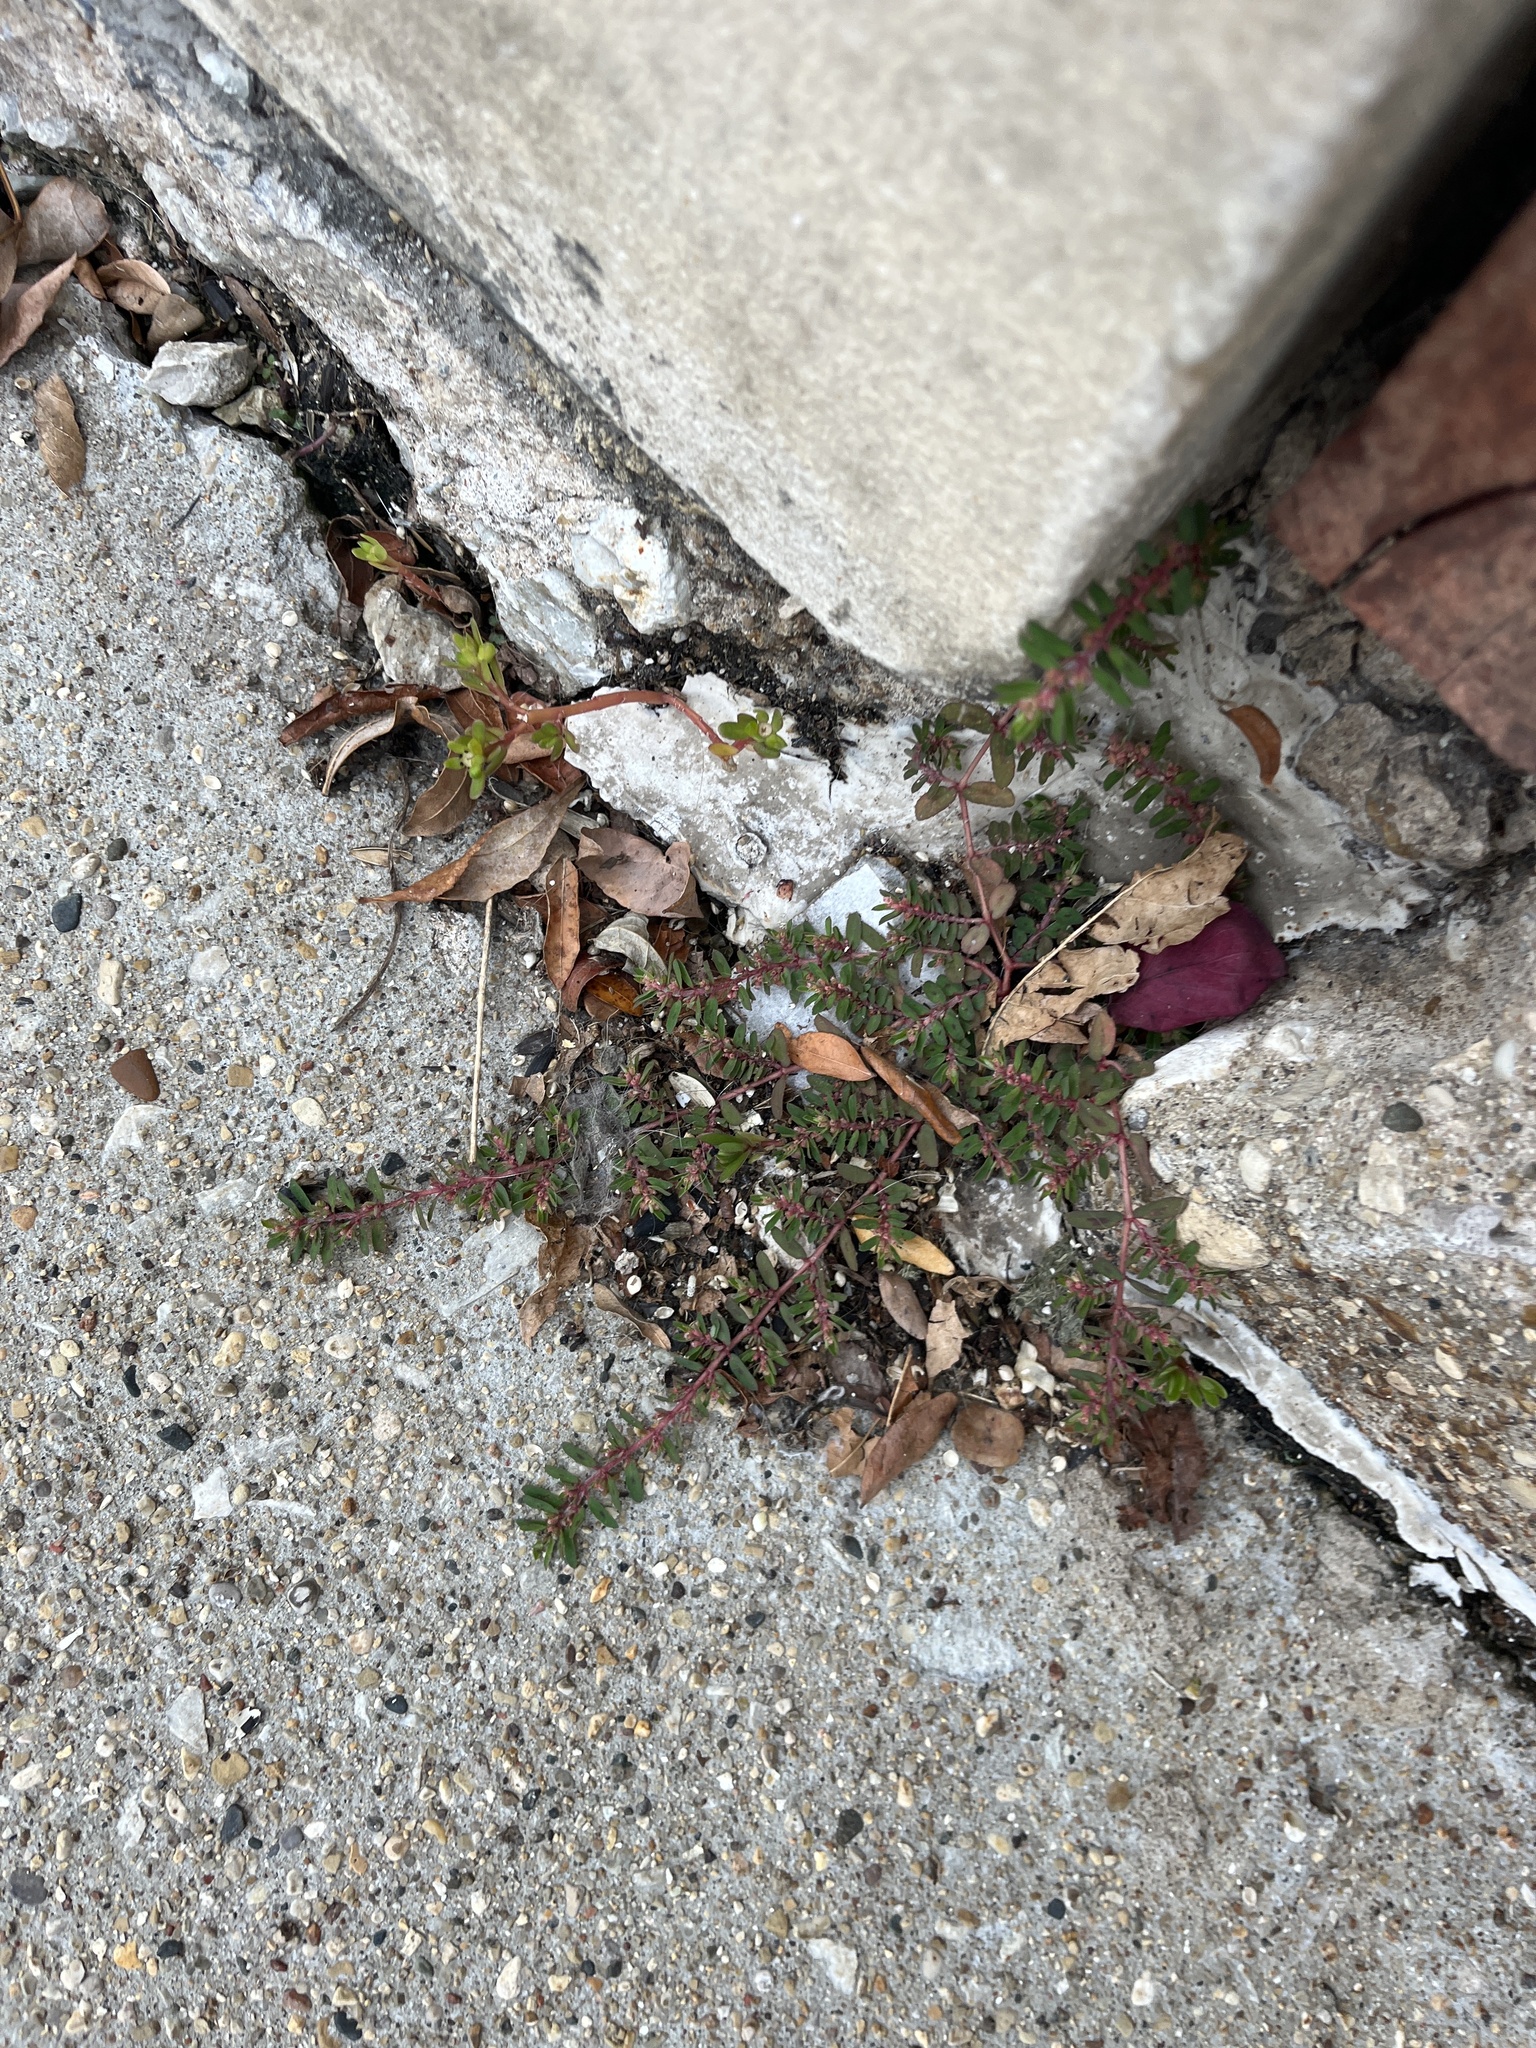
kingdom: Plantae
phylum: Tracheophyta
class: Magnoliopsida
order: Malpighiales
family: Euphorbiaceae
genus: Euphorbia
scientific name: Euphorbia maculata
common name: Spotted spurge
